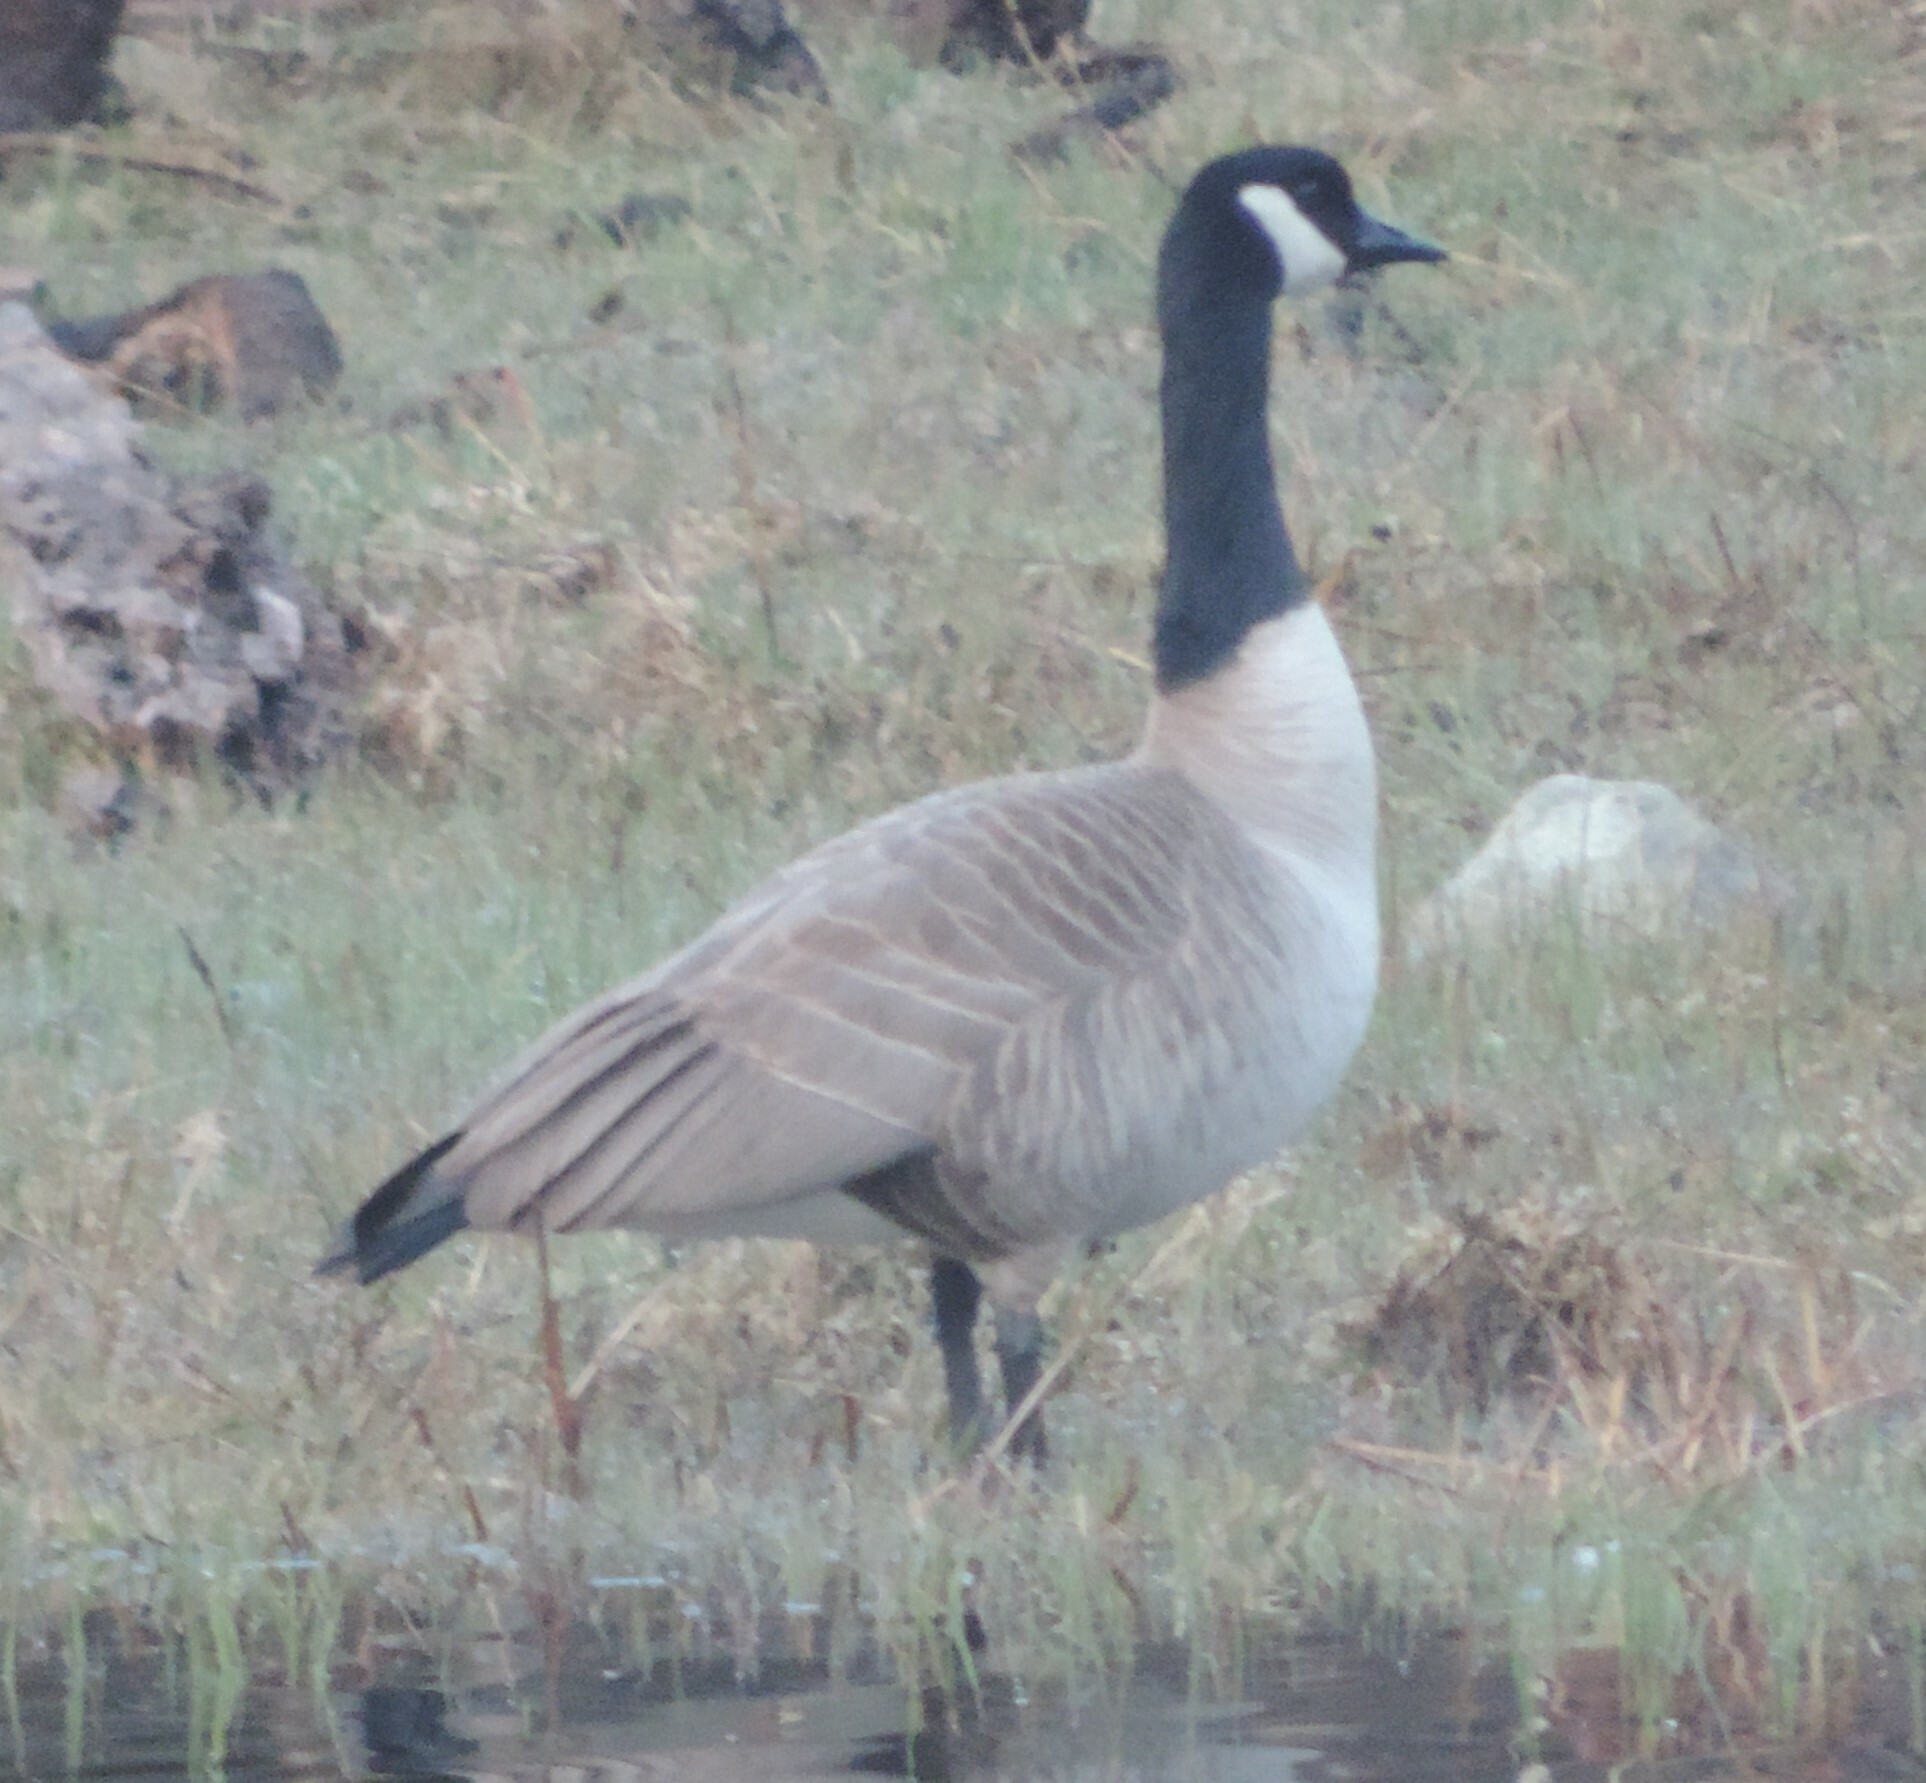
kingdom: Animalia
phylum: Chordata
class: Aves
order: Anseriformes
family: Anatidae
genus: Branta
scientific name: Branta canadensis
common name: Canada goose
